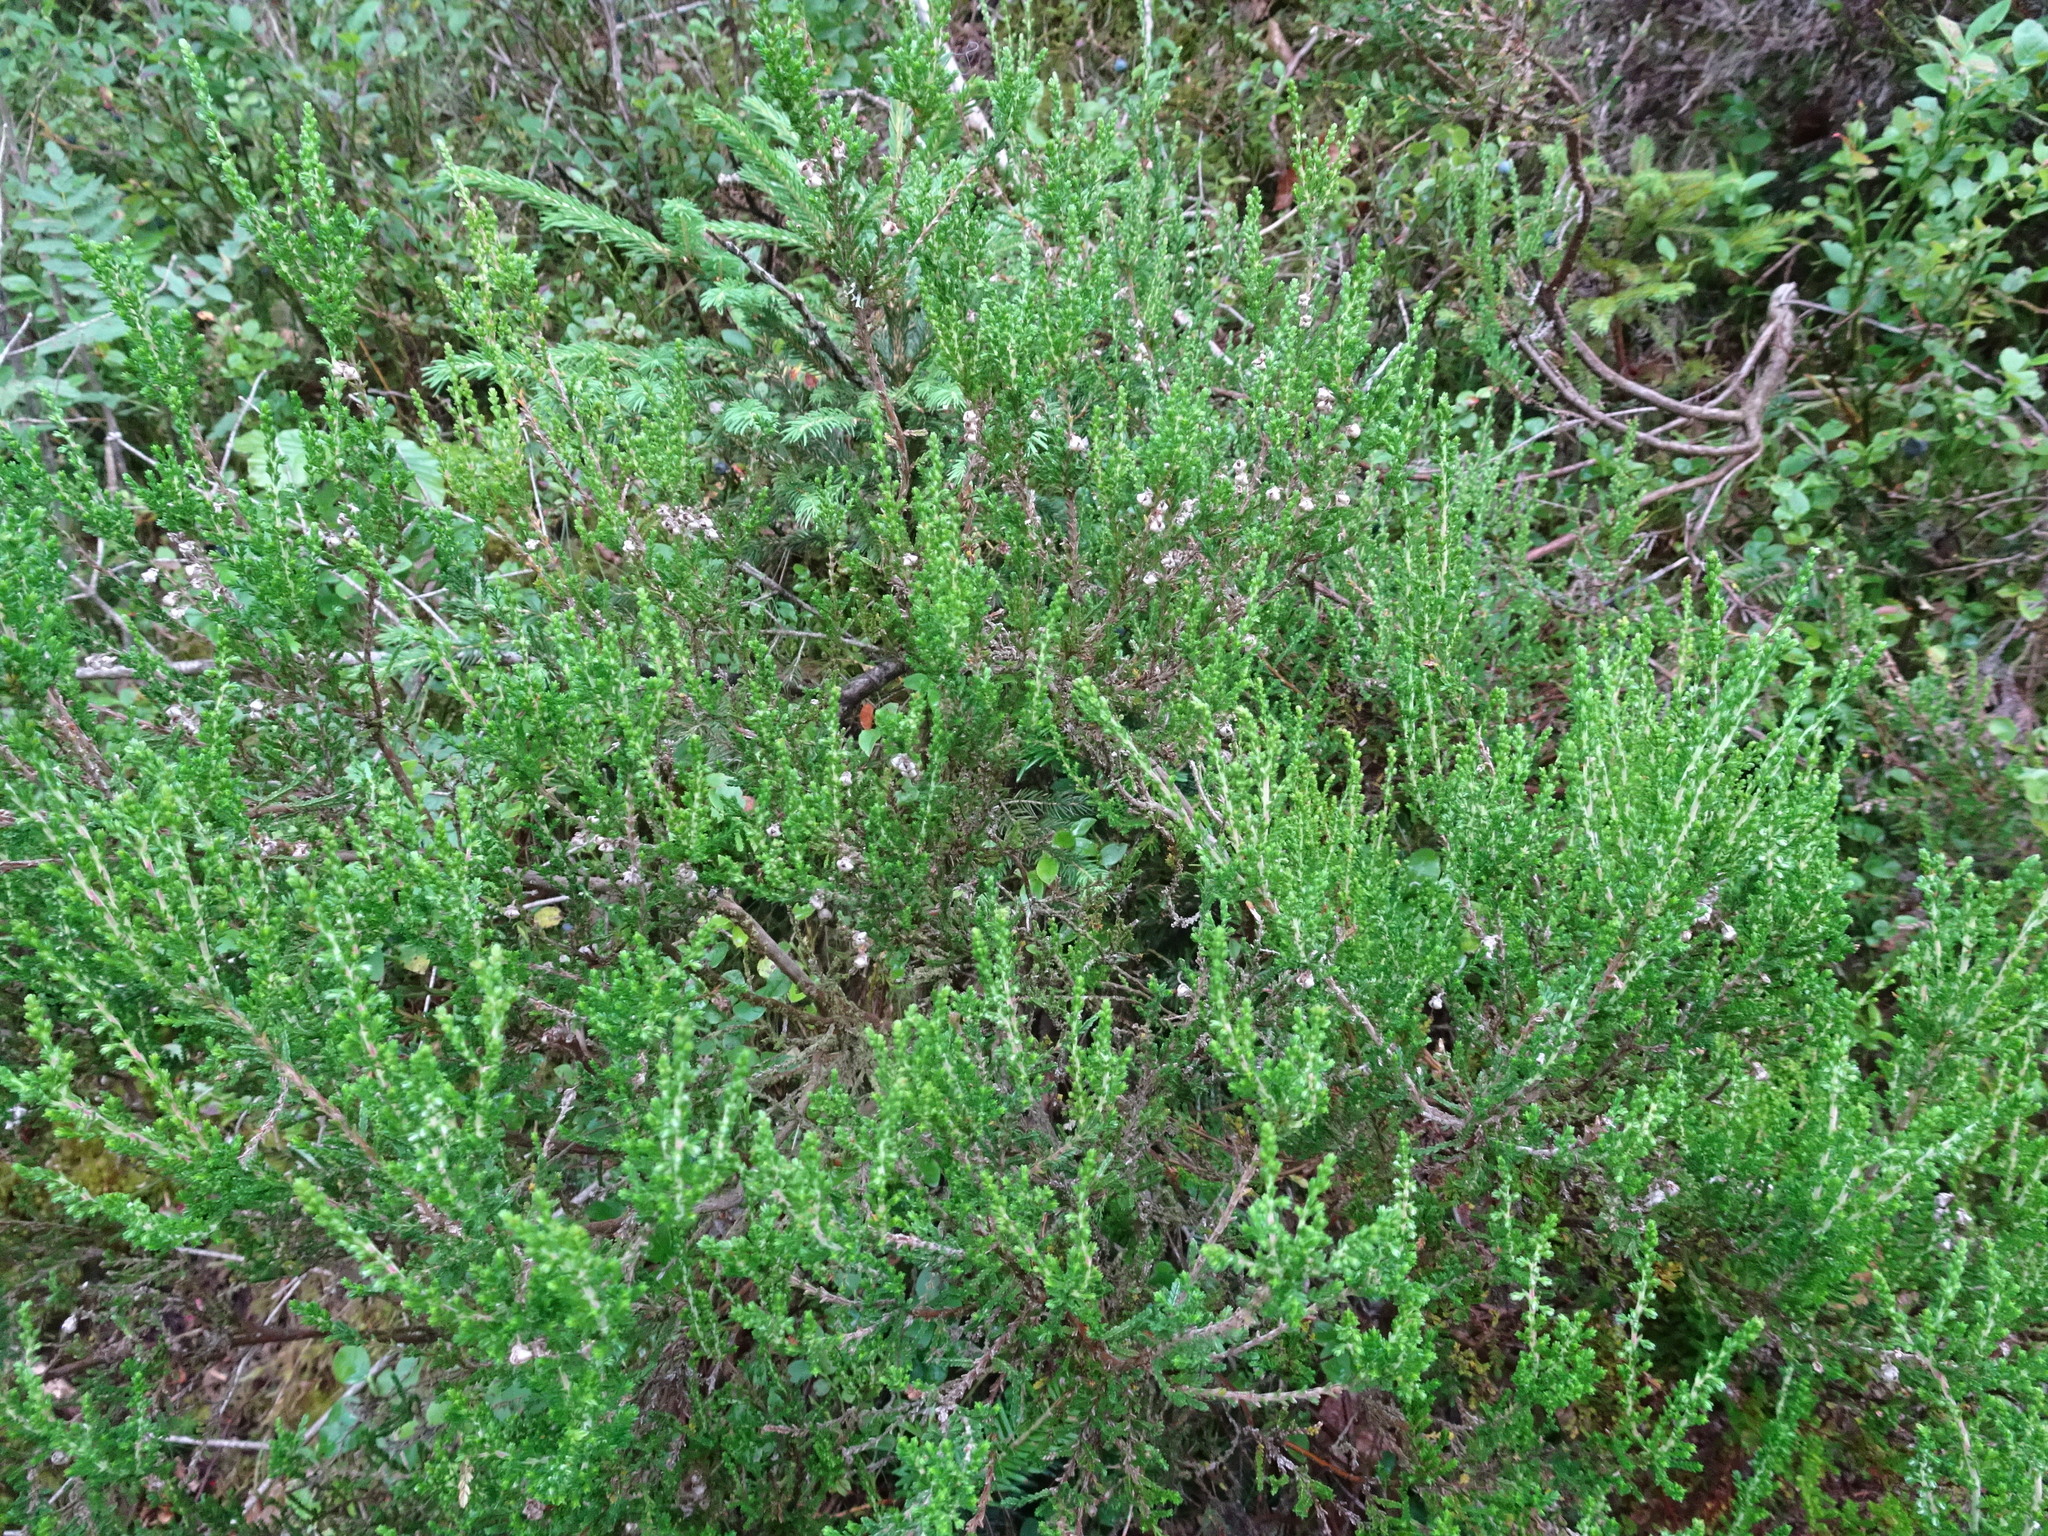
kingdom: Plantae
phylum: Tracheophyta
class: Magnoliopsida
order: Ericales
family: Ericaceae
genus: Calluna
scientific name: Calluna vulgaris
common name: Heather
